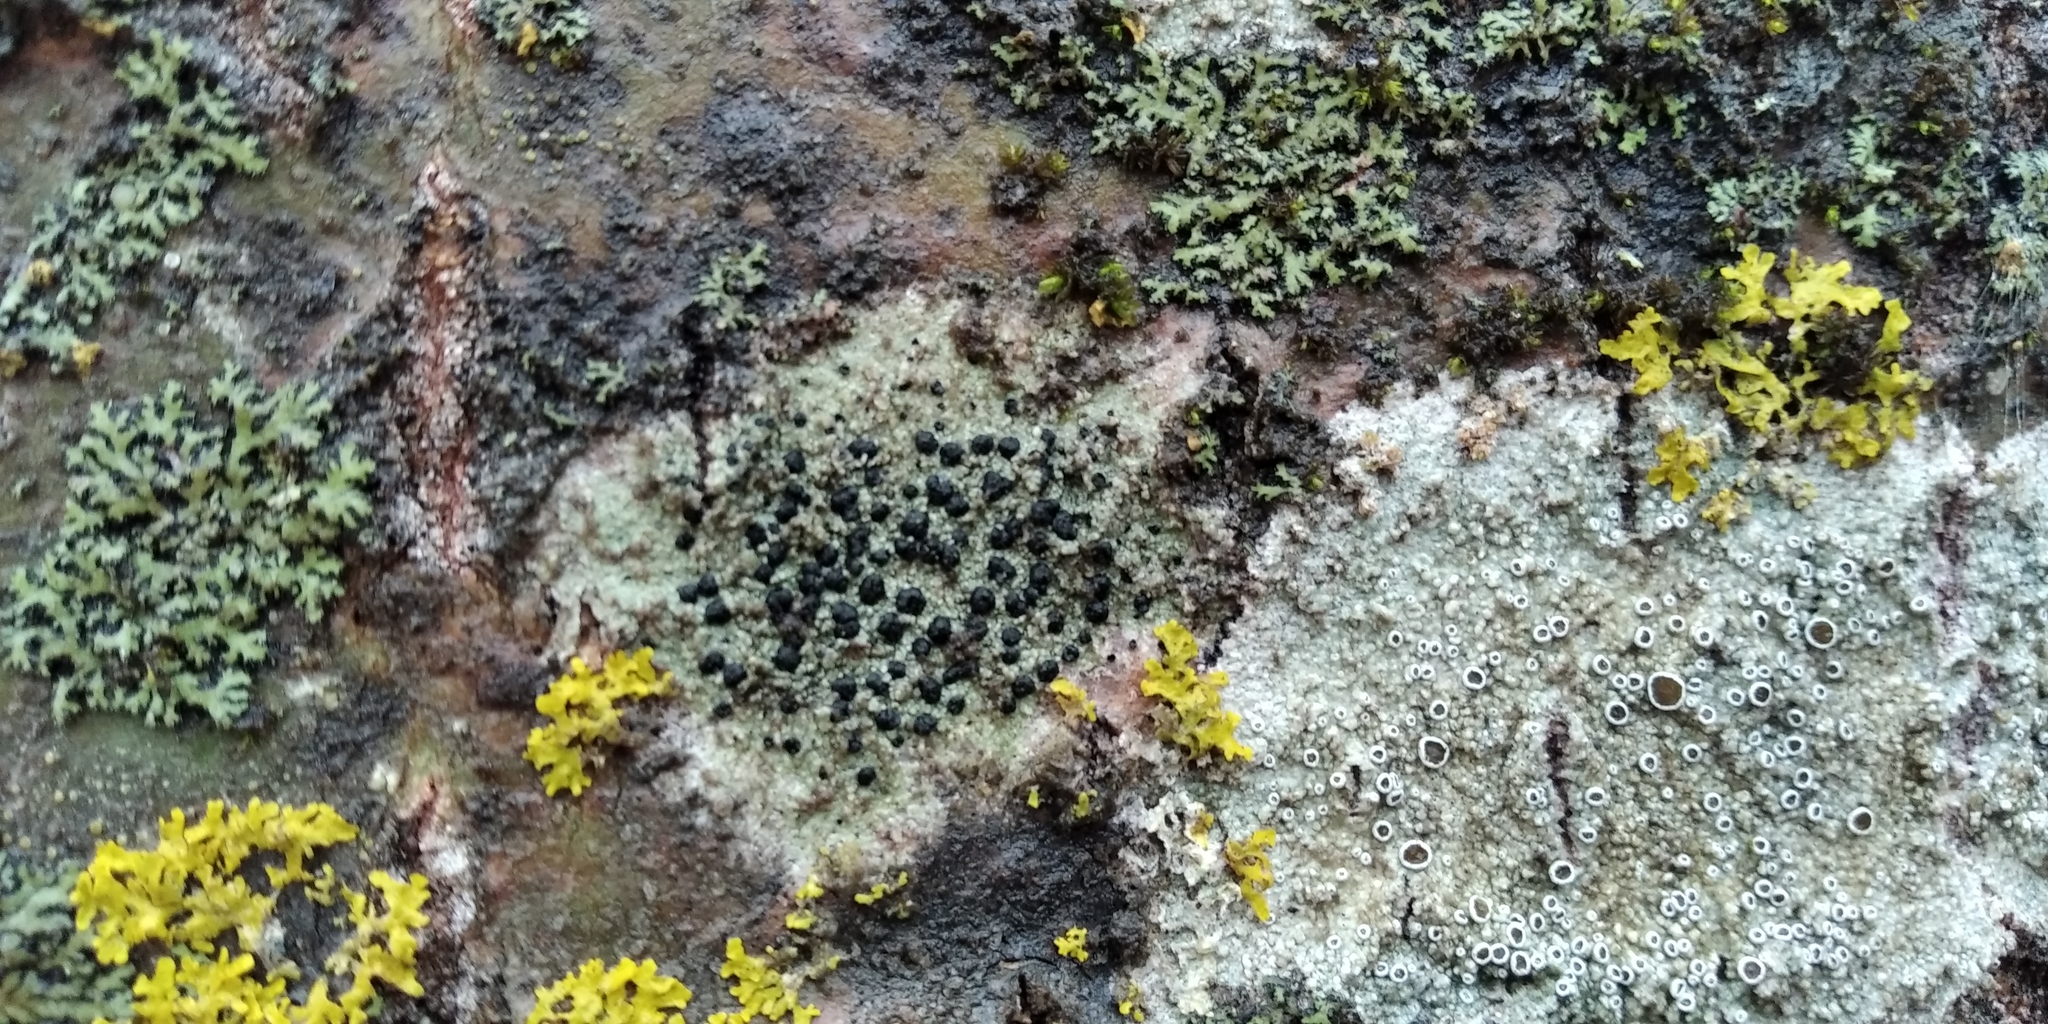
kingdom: Fungi
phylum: Ascomycota
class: Lecanoromycetes
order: Lecanorales
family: Lecanoraceae
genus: Lecidella
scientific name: Lecidella elaeochroma
